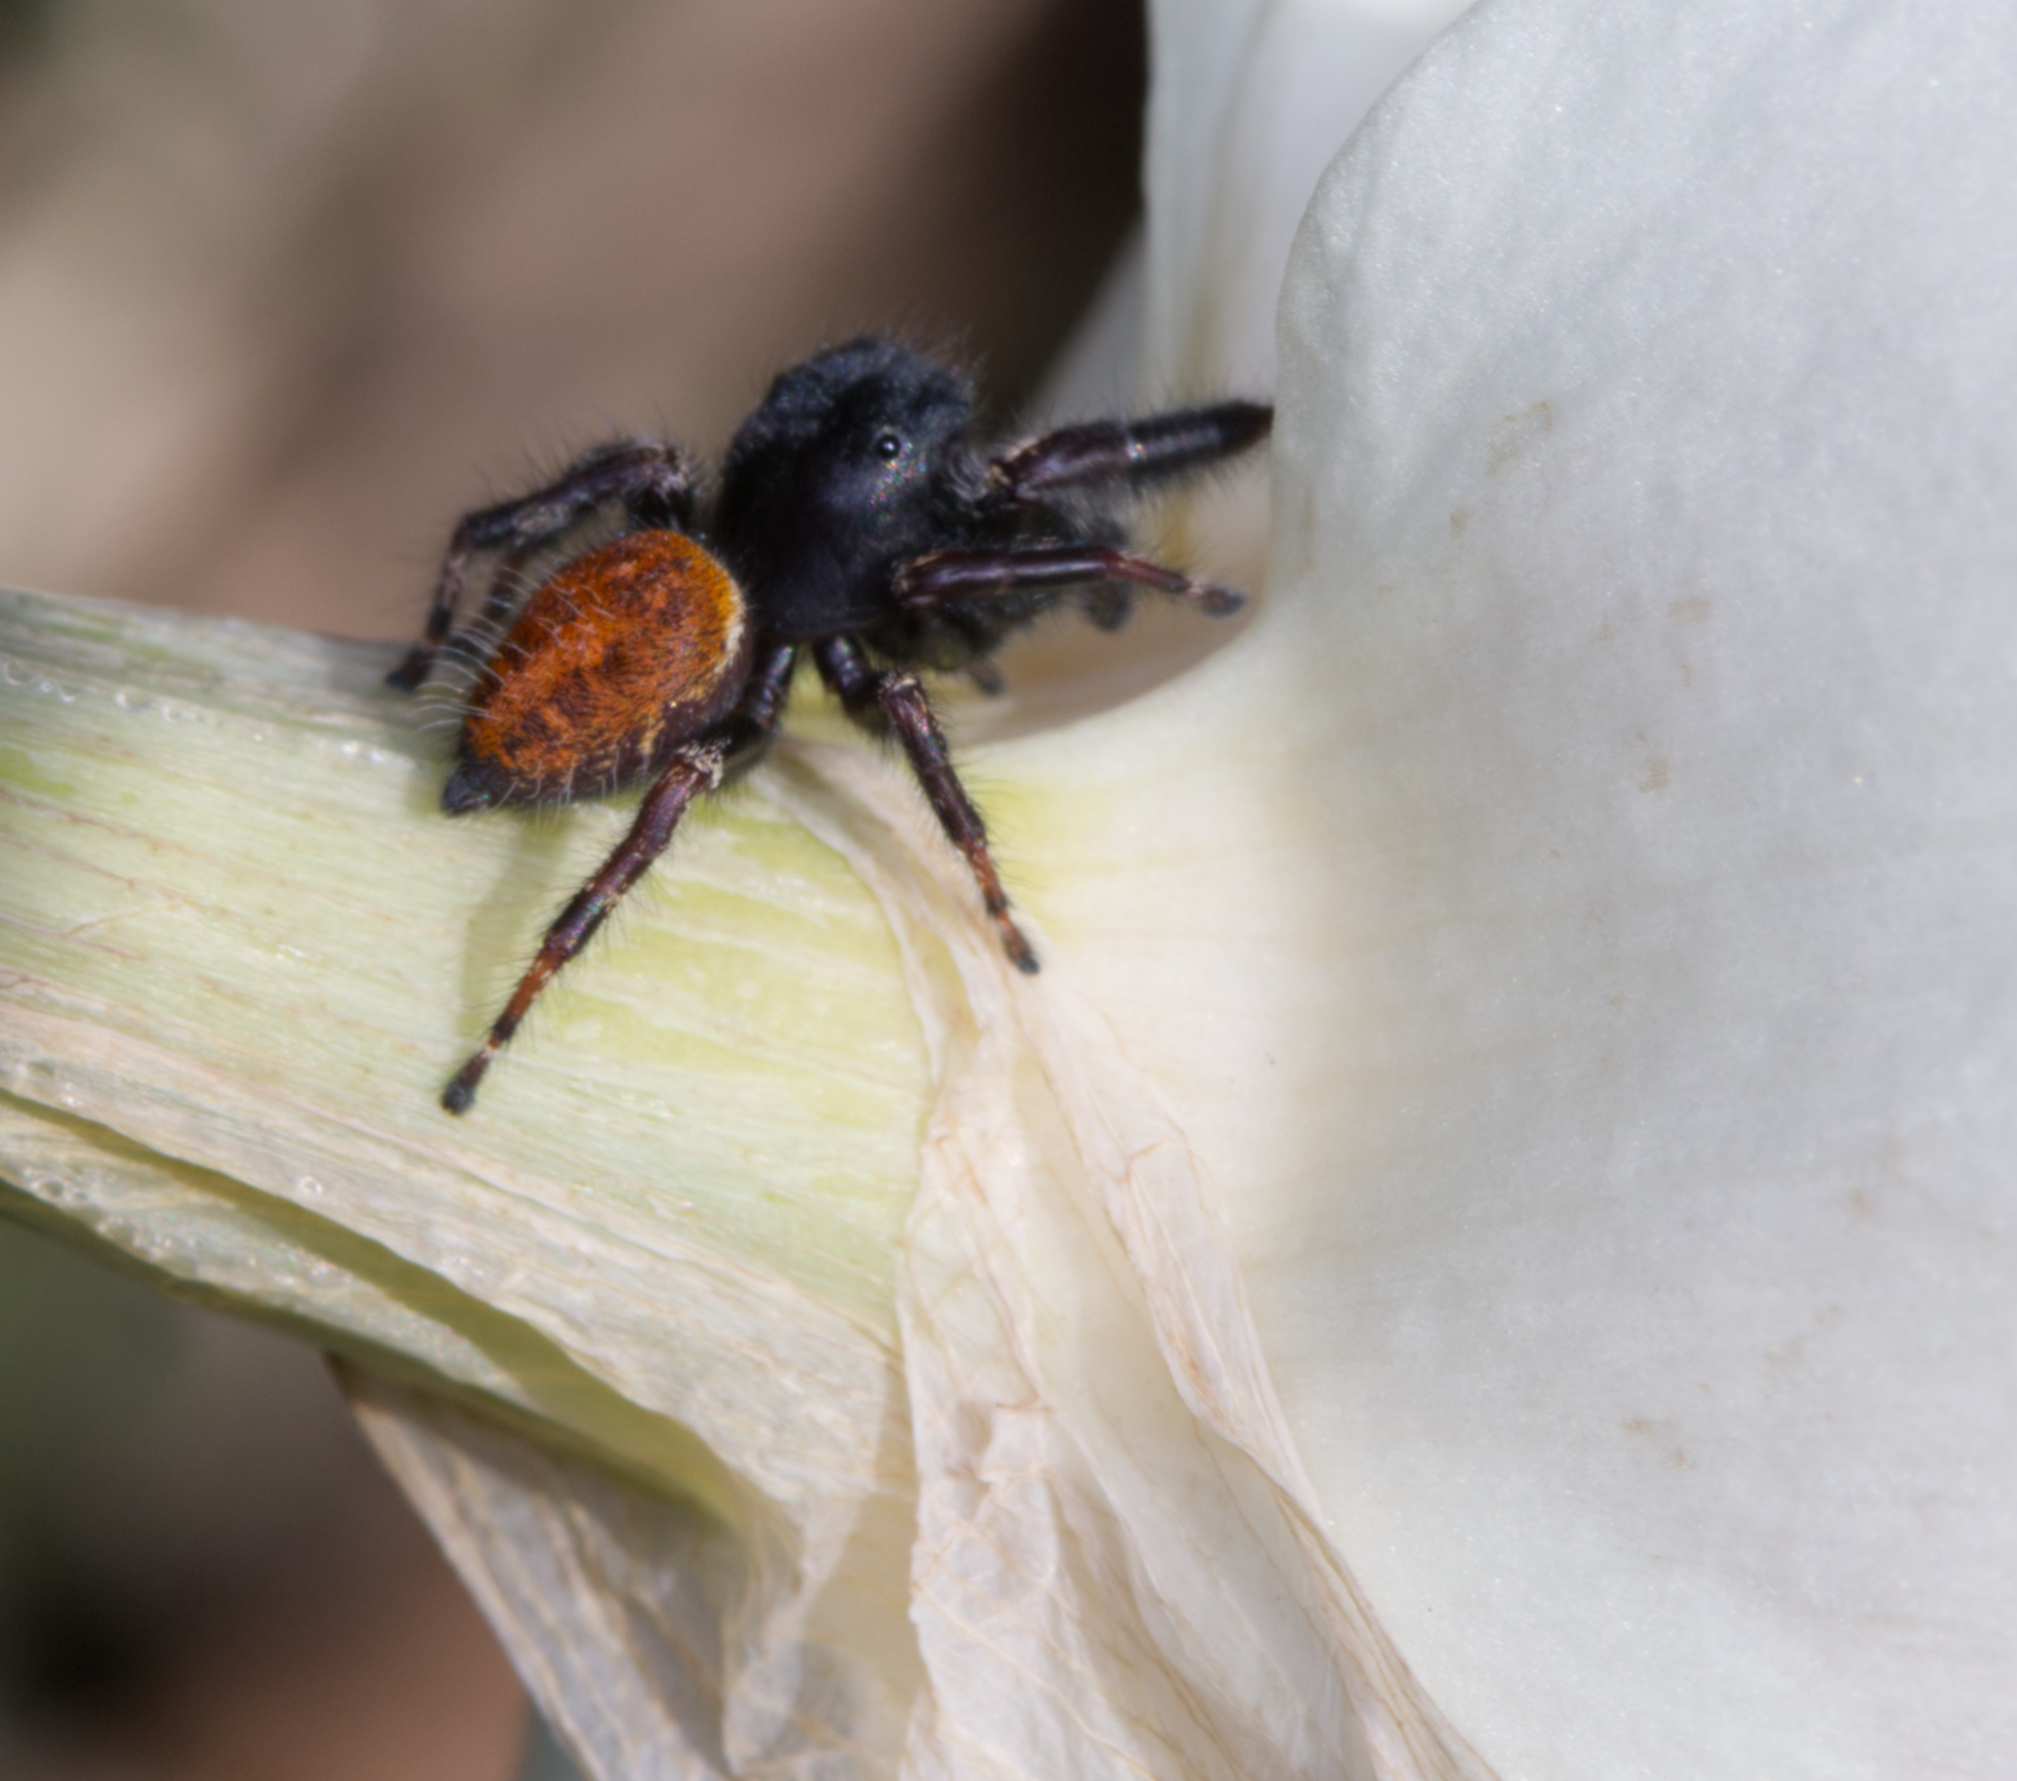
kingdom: Animalia
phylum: Arthropoda
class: Arachnida
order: Araneae
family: Salticidae
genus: Phidippus
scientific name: Phidippus princeps
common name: Grayish jumping spider
